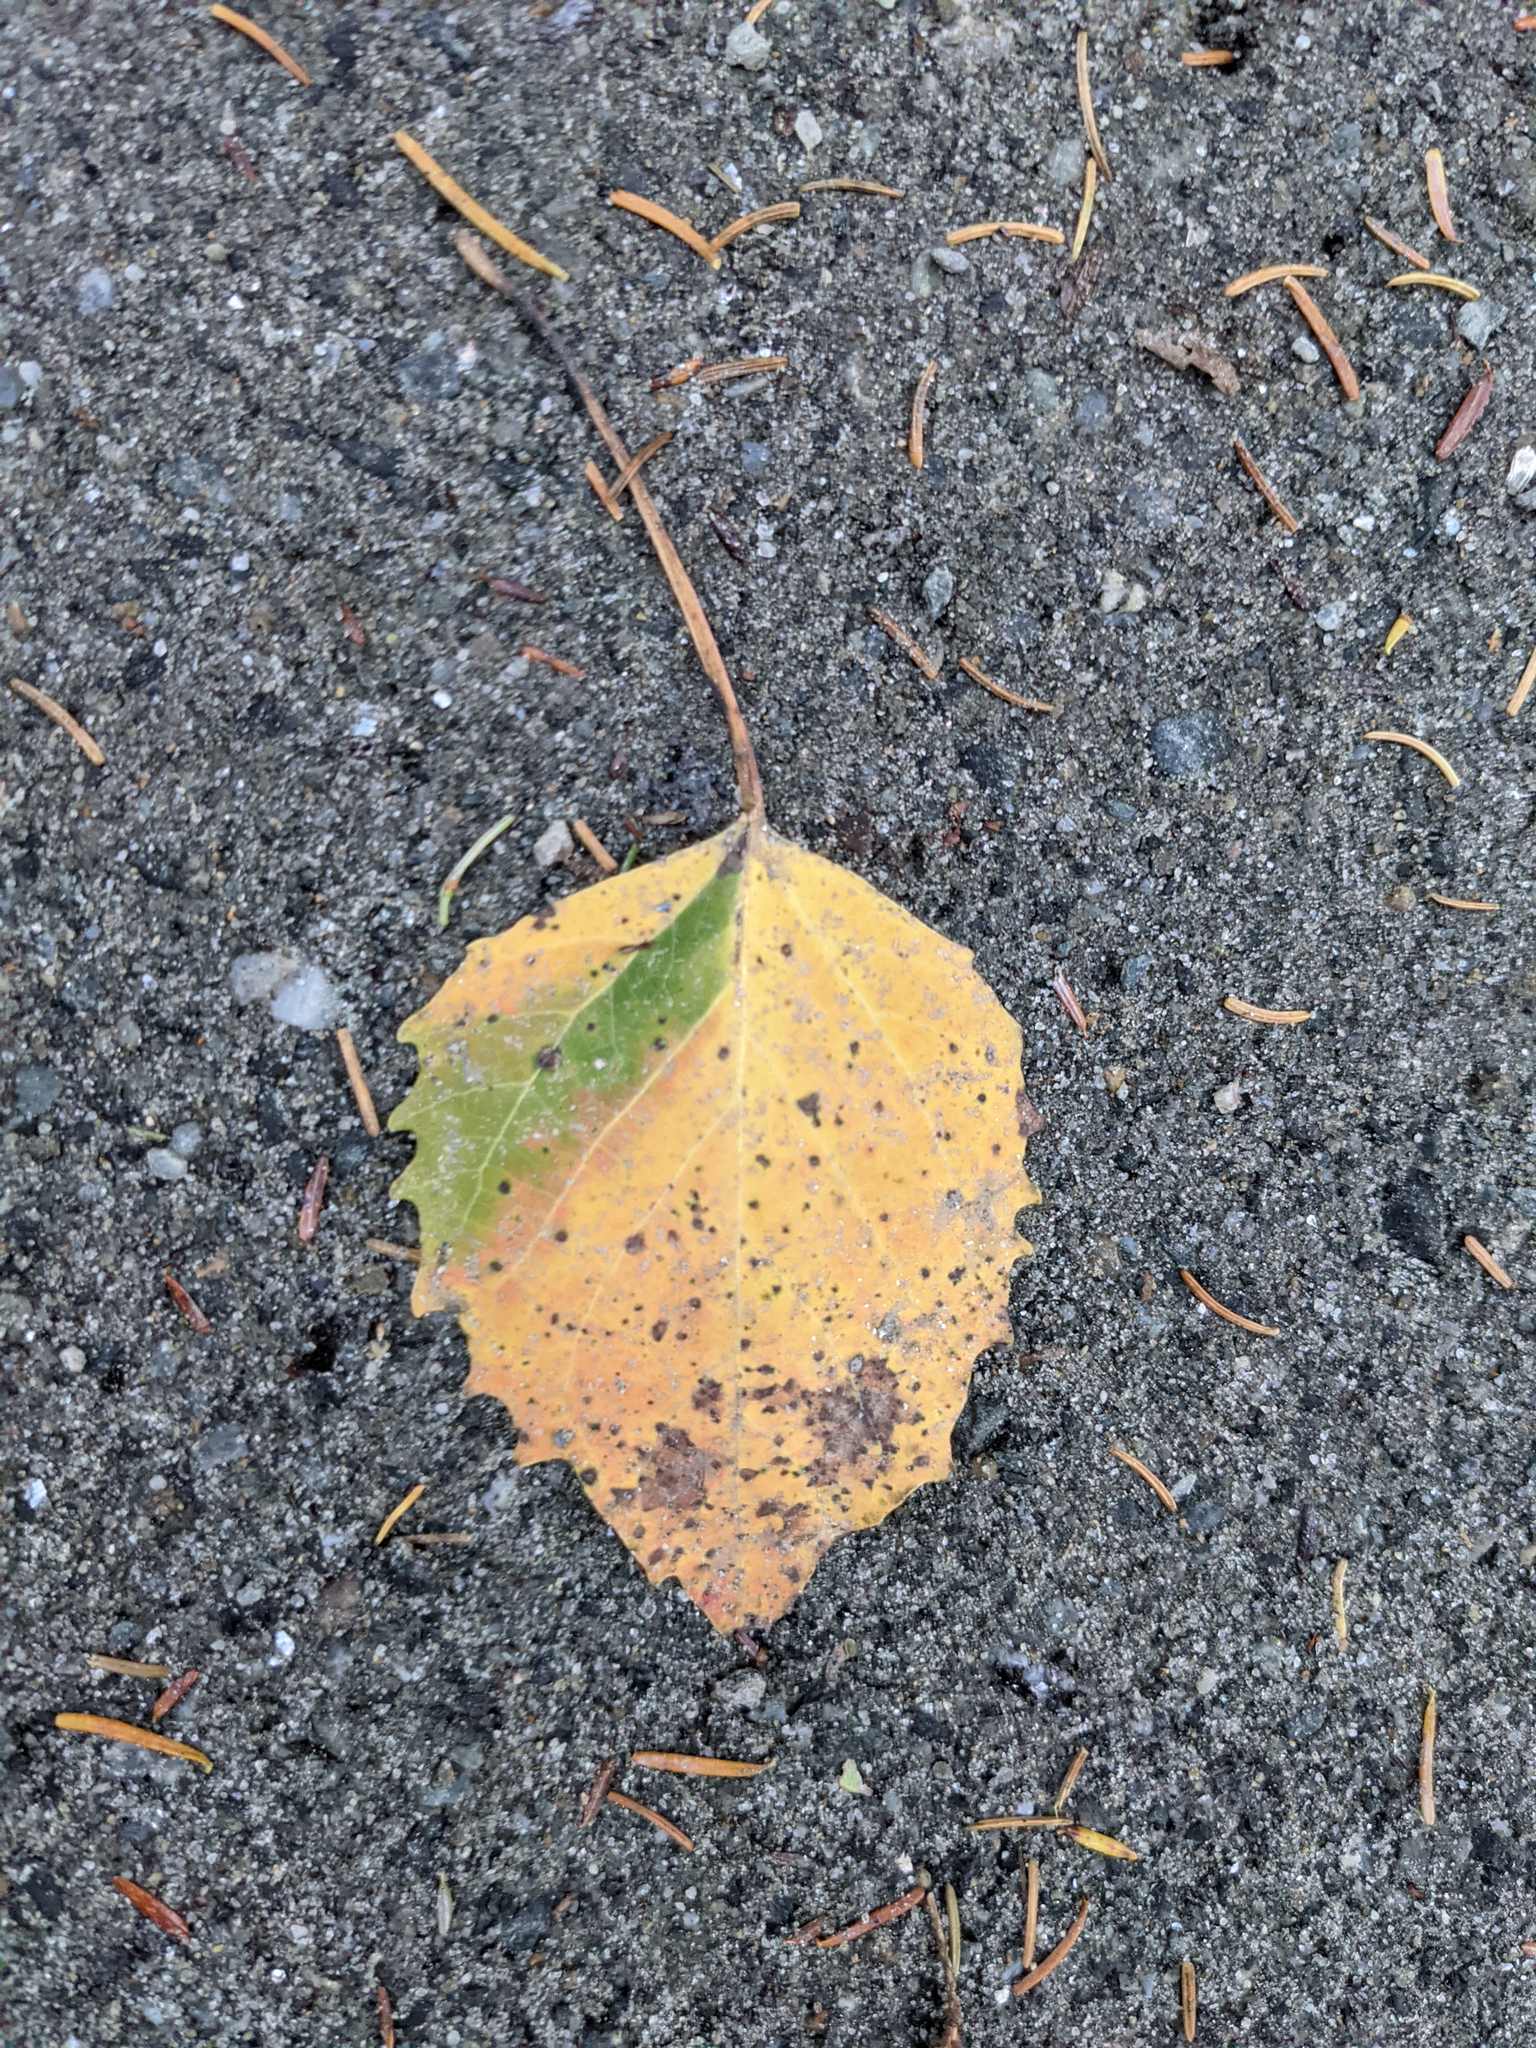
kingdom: Plantae
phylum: Tracheophyta
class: Magnoliopsida
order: Malpighiales
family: Salicaceae
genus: Populus
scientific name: Populus grandidentata
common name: Bigtooth aspen
